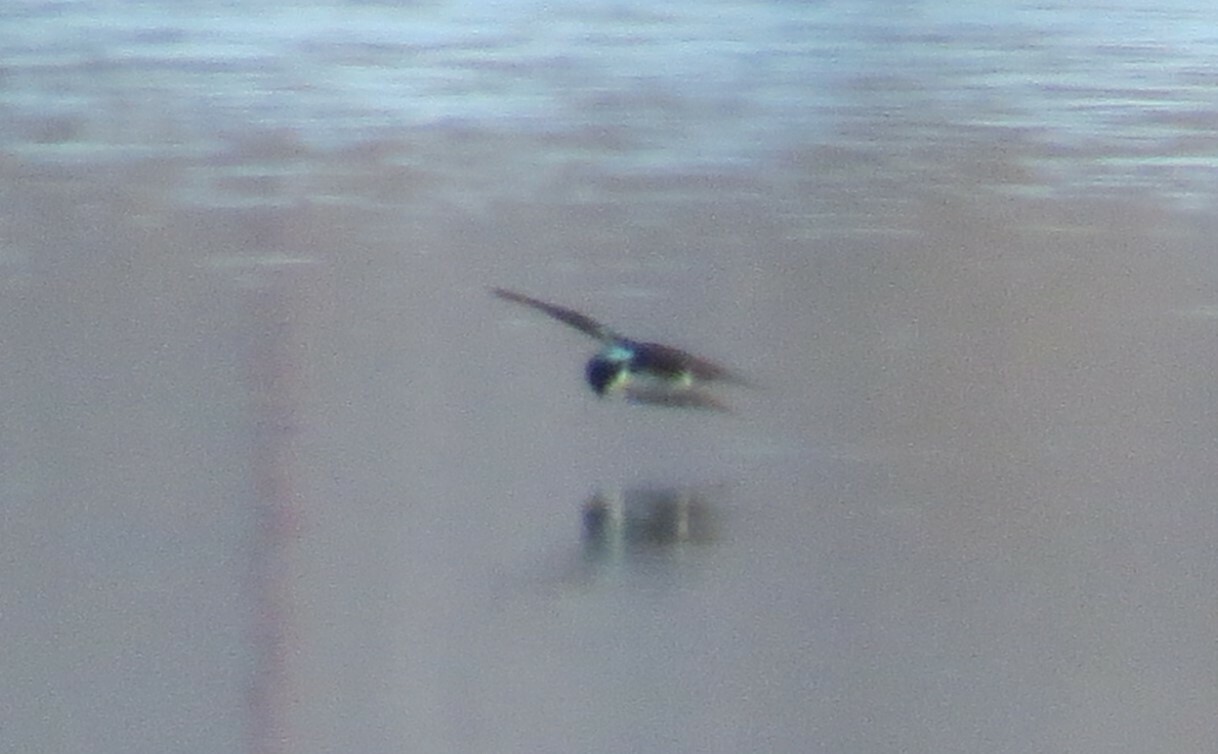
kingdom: Animalia
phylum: Chordata
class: Aves
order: Passeriformes
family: Hirundinidae
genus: Tachycineta
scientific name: Tachycineta bicolor
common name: Tree swallow
